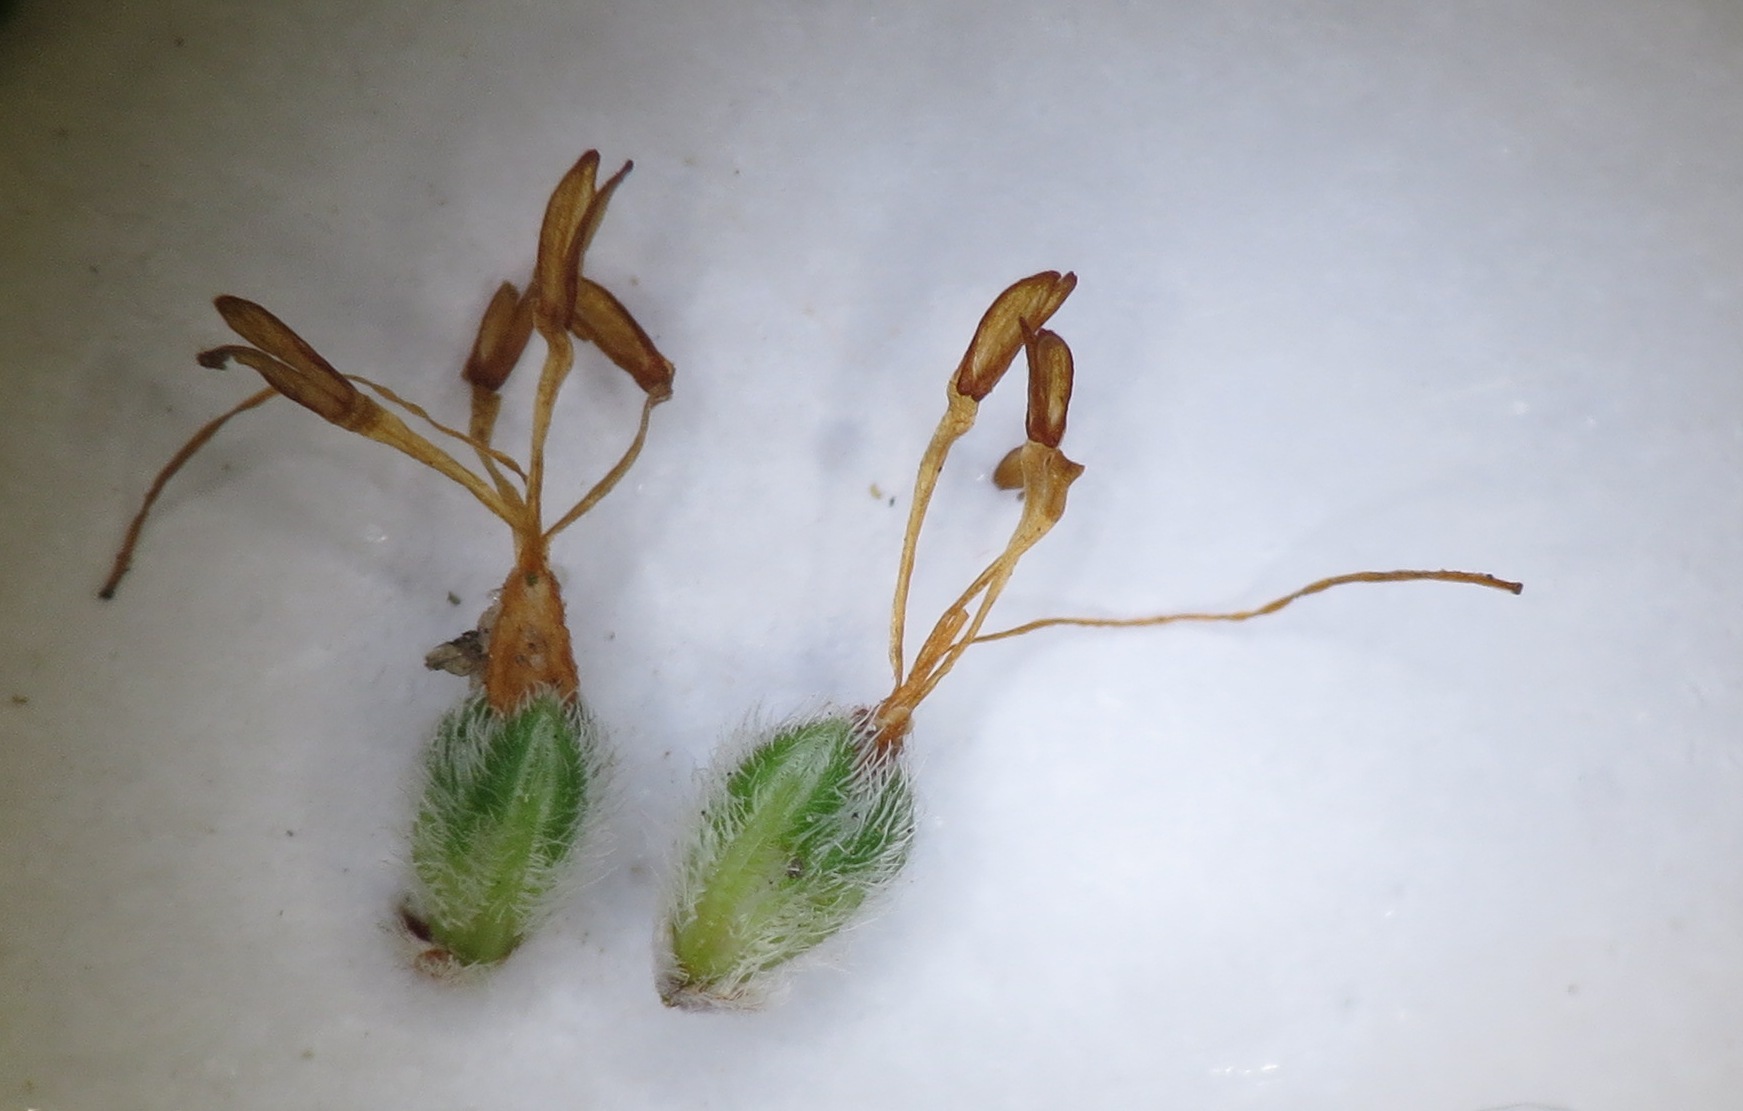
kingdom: Plantae
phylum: Tracheophyta
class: Magnoliopsida
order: Ericales
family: Ericaceae
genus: Erica
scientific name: Erica paucifolia
